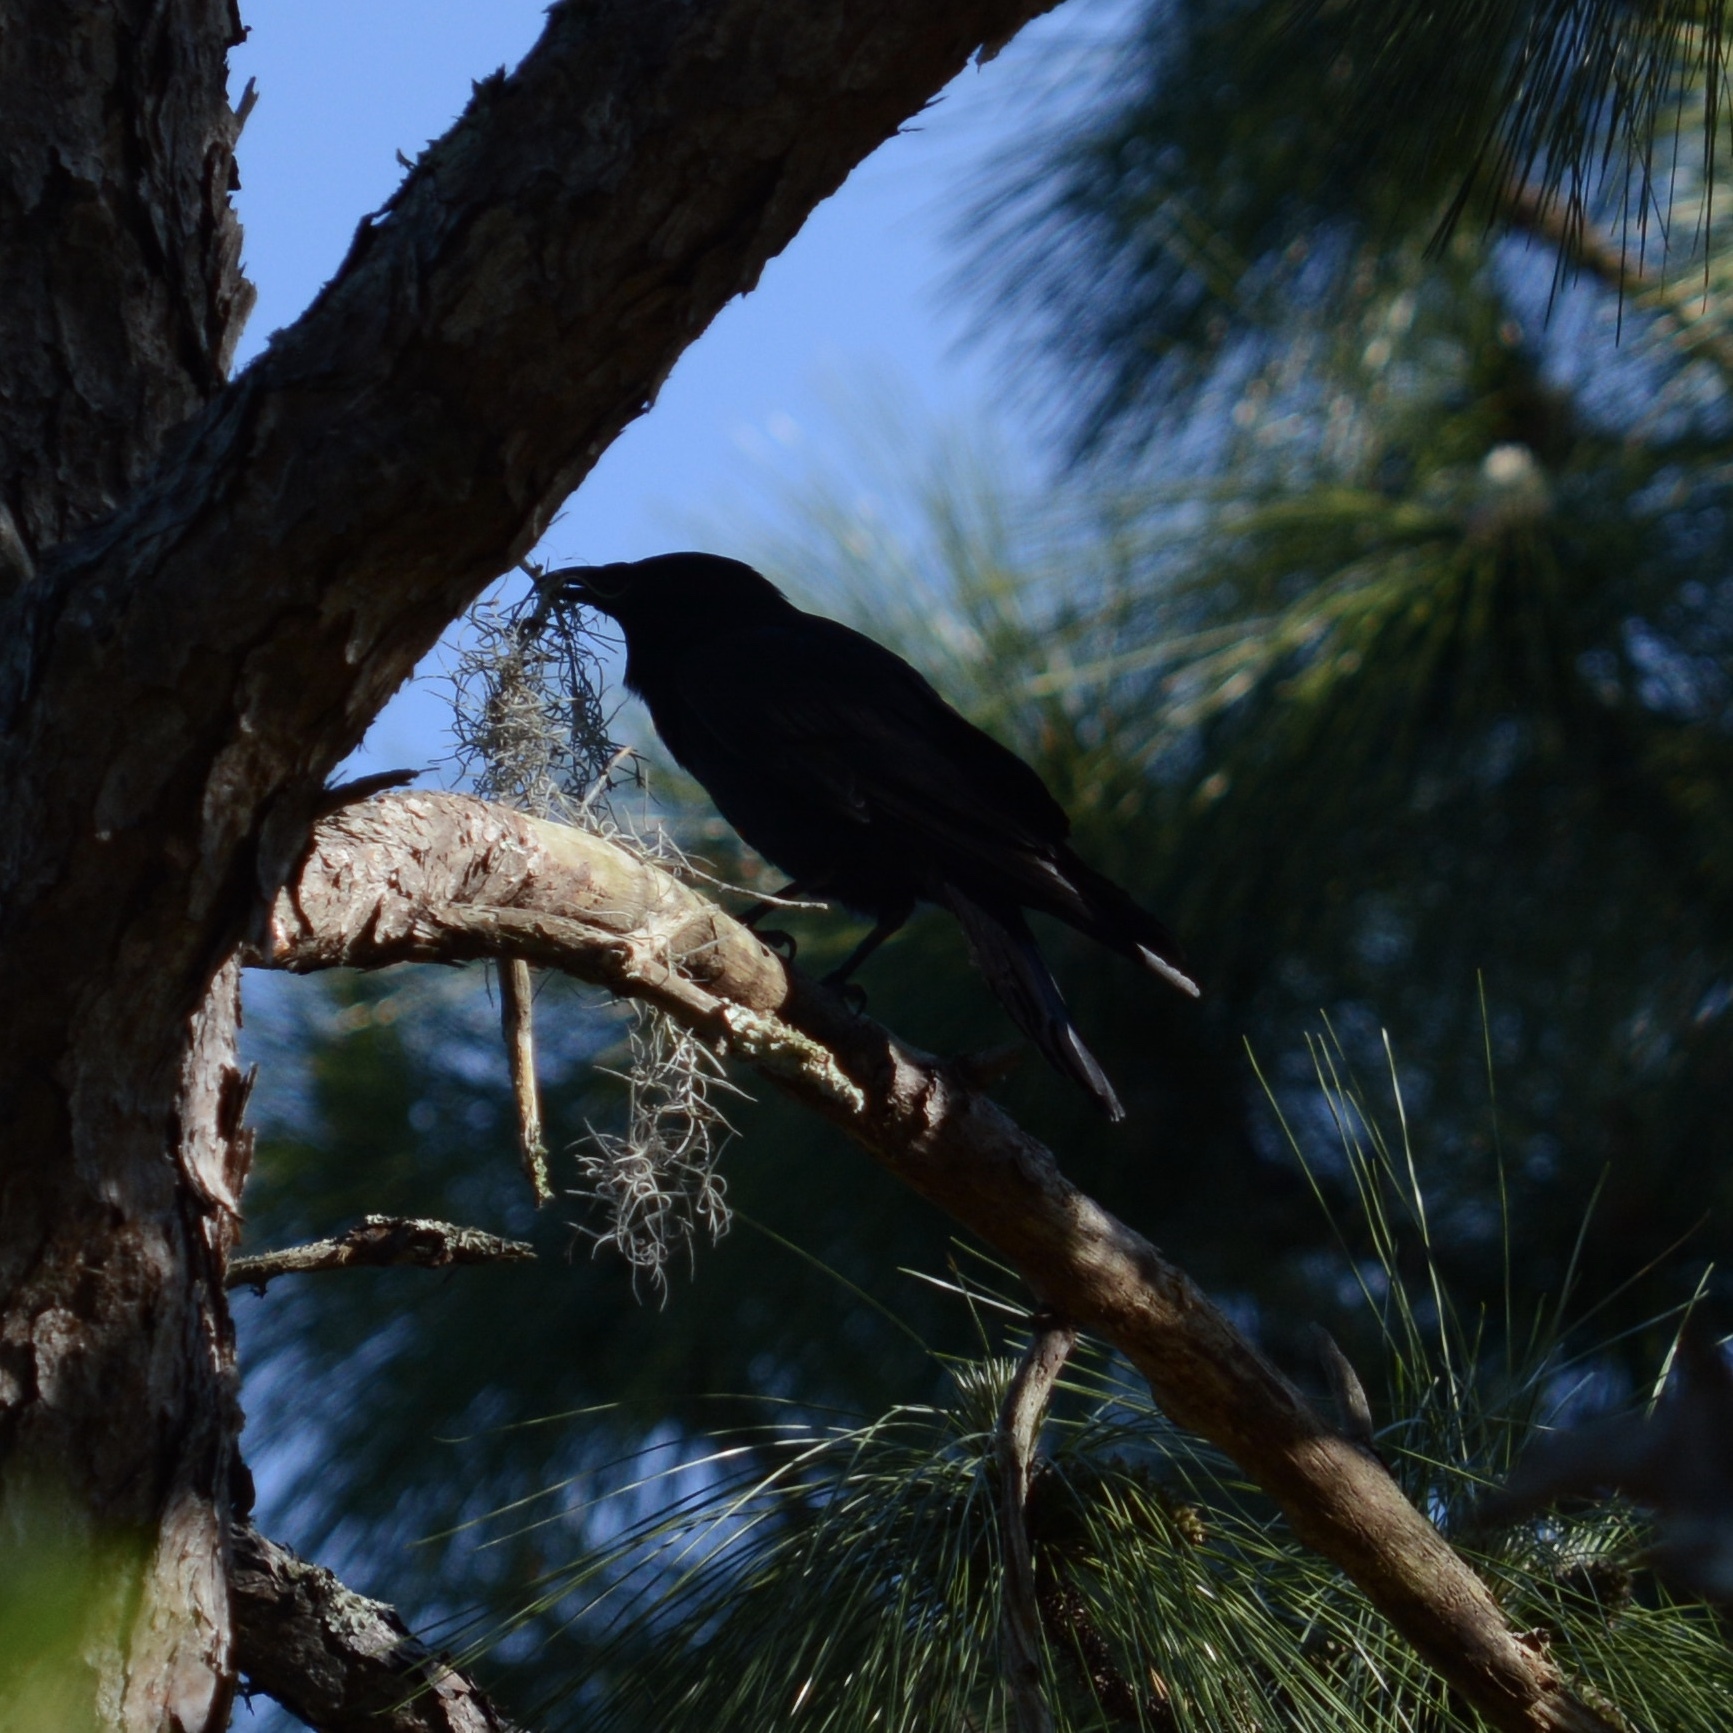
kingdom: Animalia
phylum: Chordata
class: Aves
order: Passeriformes
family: Corvidae
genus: Corvus
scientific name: Corvus ossifragus
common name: Fish crow
